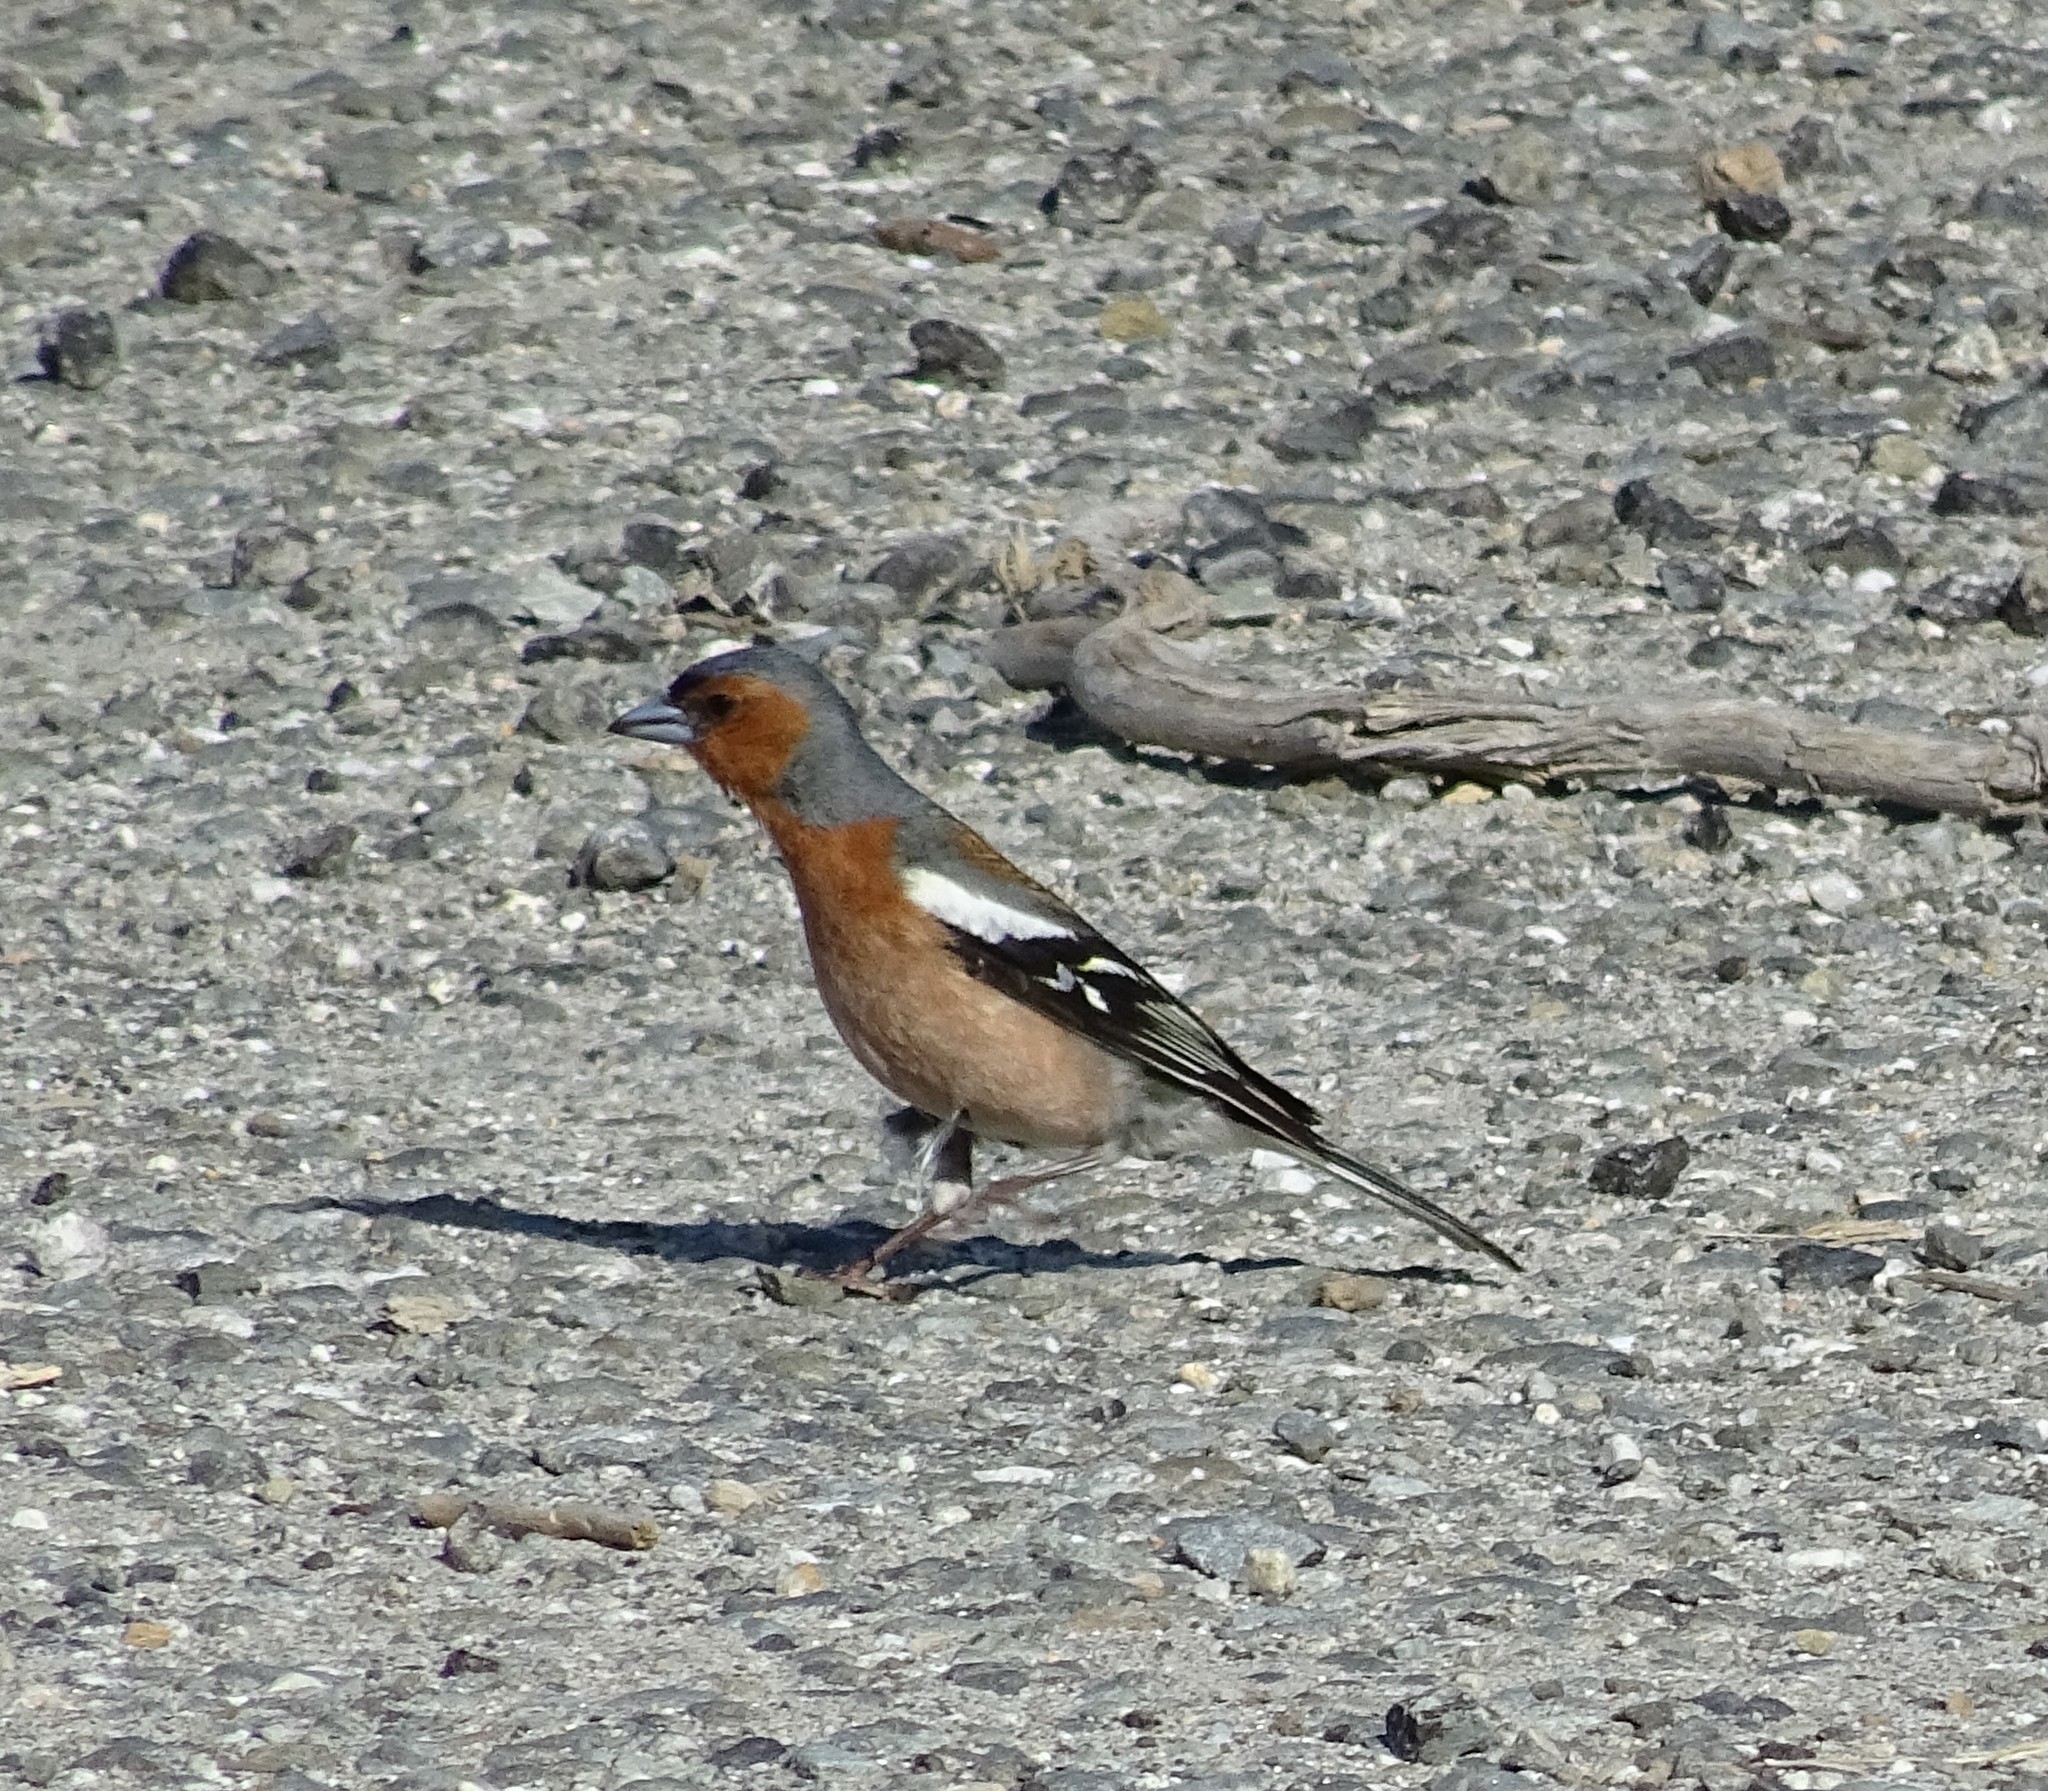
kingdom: Animalia
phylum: Chordata
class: Aves
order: Passeriformes
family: Fringillidae
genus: Fringilla
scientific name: Fringilla coelebs
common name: Common chaffinch
